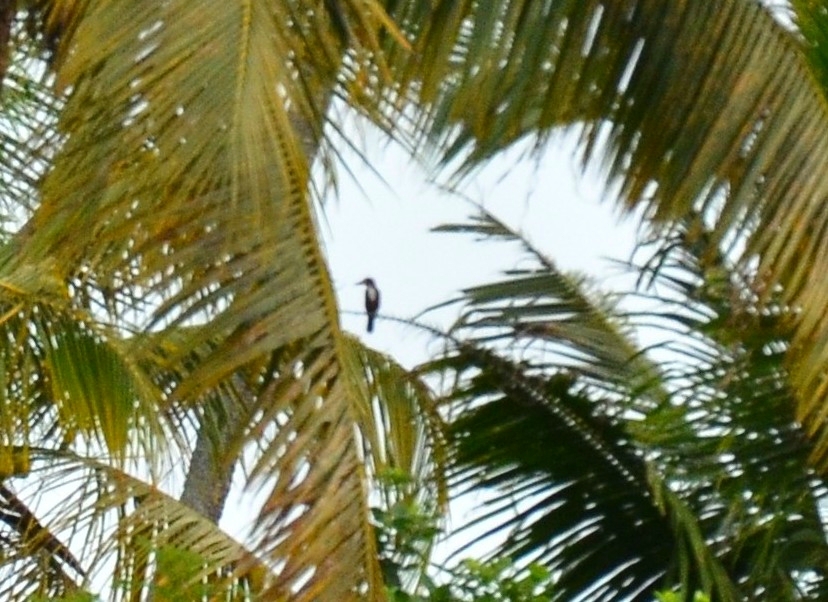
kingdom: Animalia
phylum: Chordata
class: Aves
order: Coraciiformes
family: Alcedinidae
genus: Halcyon
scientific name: Halcyon smyrnensis
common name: White-throated kingfisher
